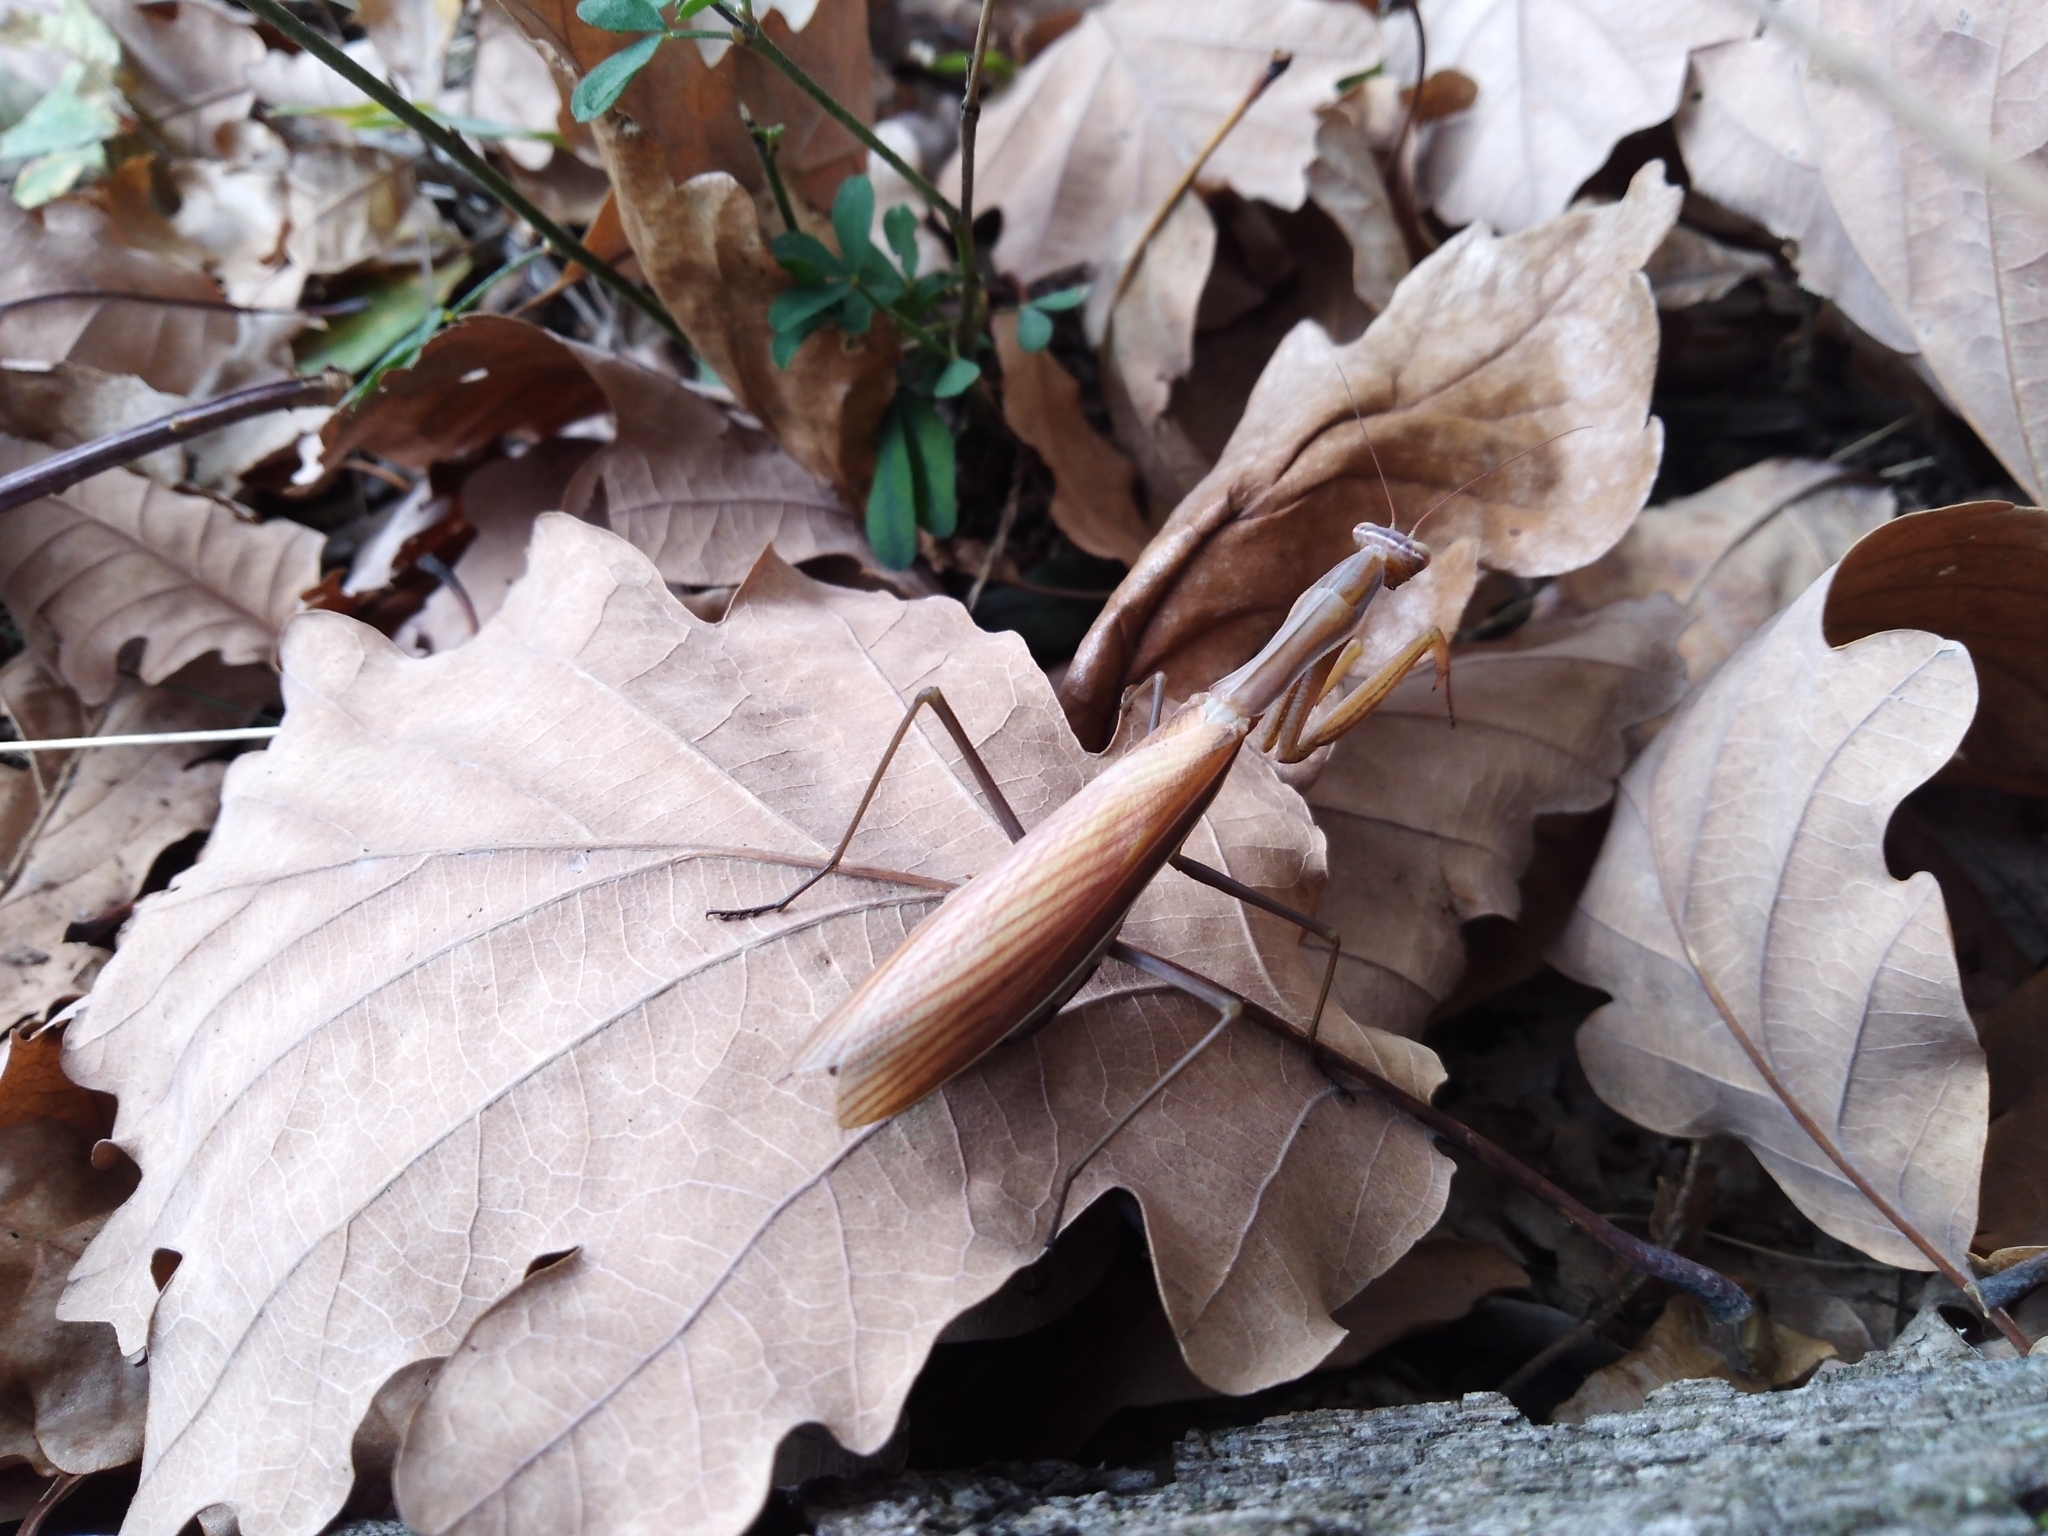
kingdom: Animalia
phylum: Arthropoda
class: Insecta
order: Mantodea
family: Mantidae
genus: Mantis
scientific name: Mantis religiosa
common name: Praying mantis
